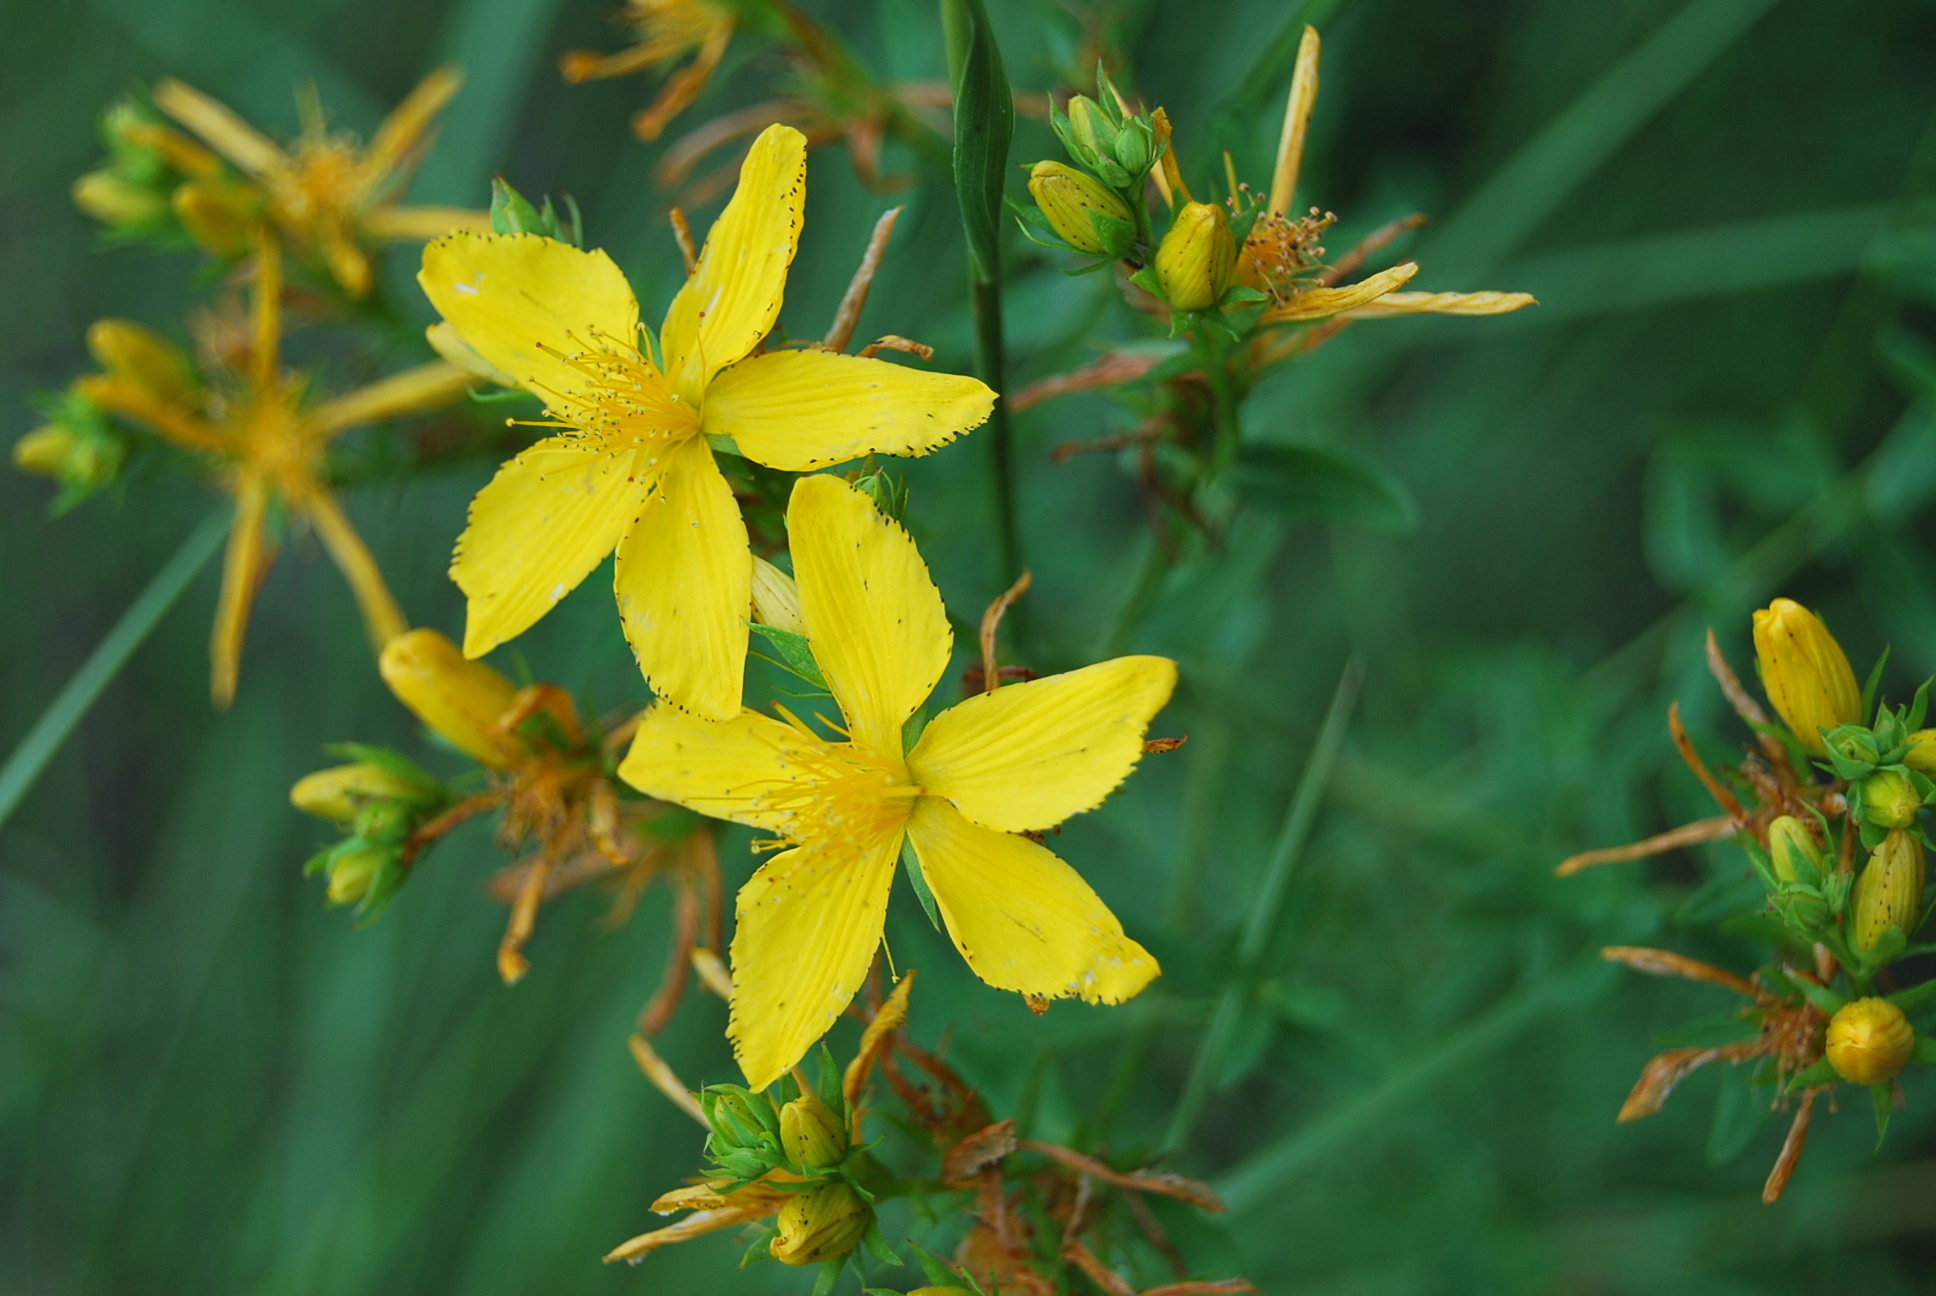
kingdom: Plantae
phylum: Tracheophyta
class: Magnoliopsida
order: Malpighiales
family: Hypericaceae
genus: Hypericum
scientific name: Hypericum perforatum
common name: Common st. johnswort
